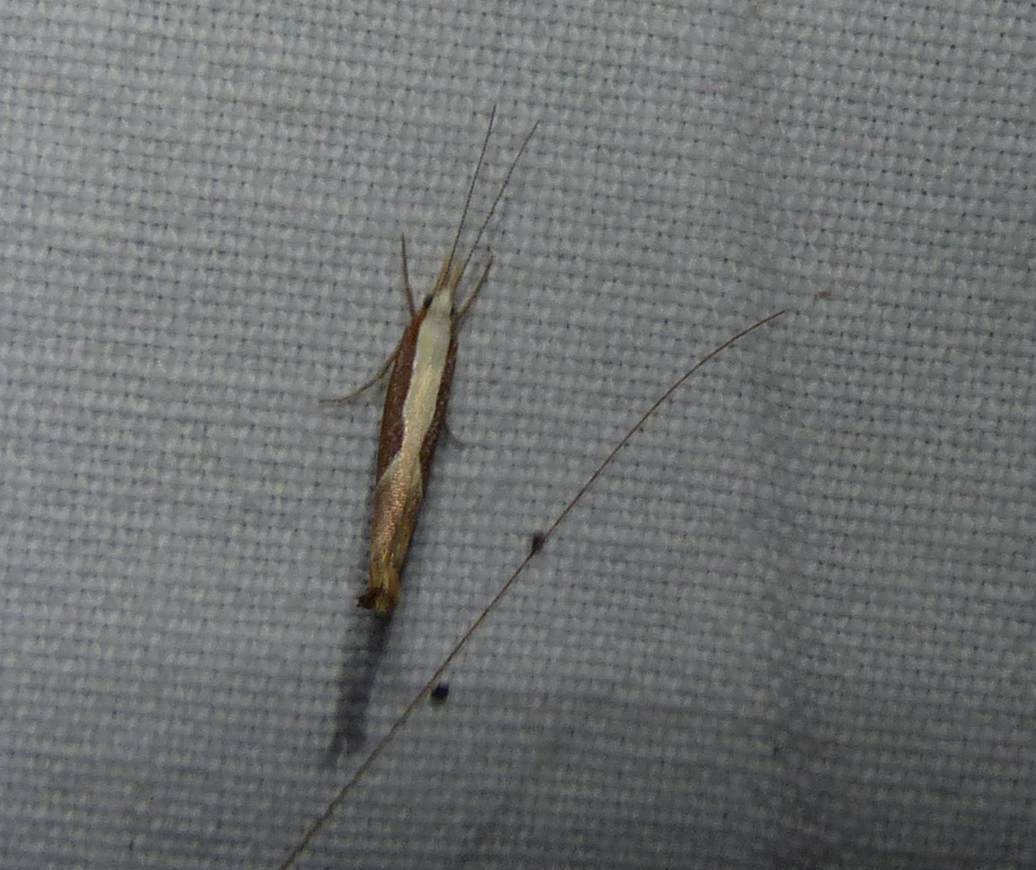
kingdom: Animalia
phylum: Arthropoda
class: Insecta
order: Lepidoptera
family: Ypsolophidae
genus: Ypsolopha
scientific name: Ypsolopha dentella
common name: Honeysuckle moth
